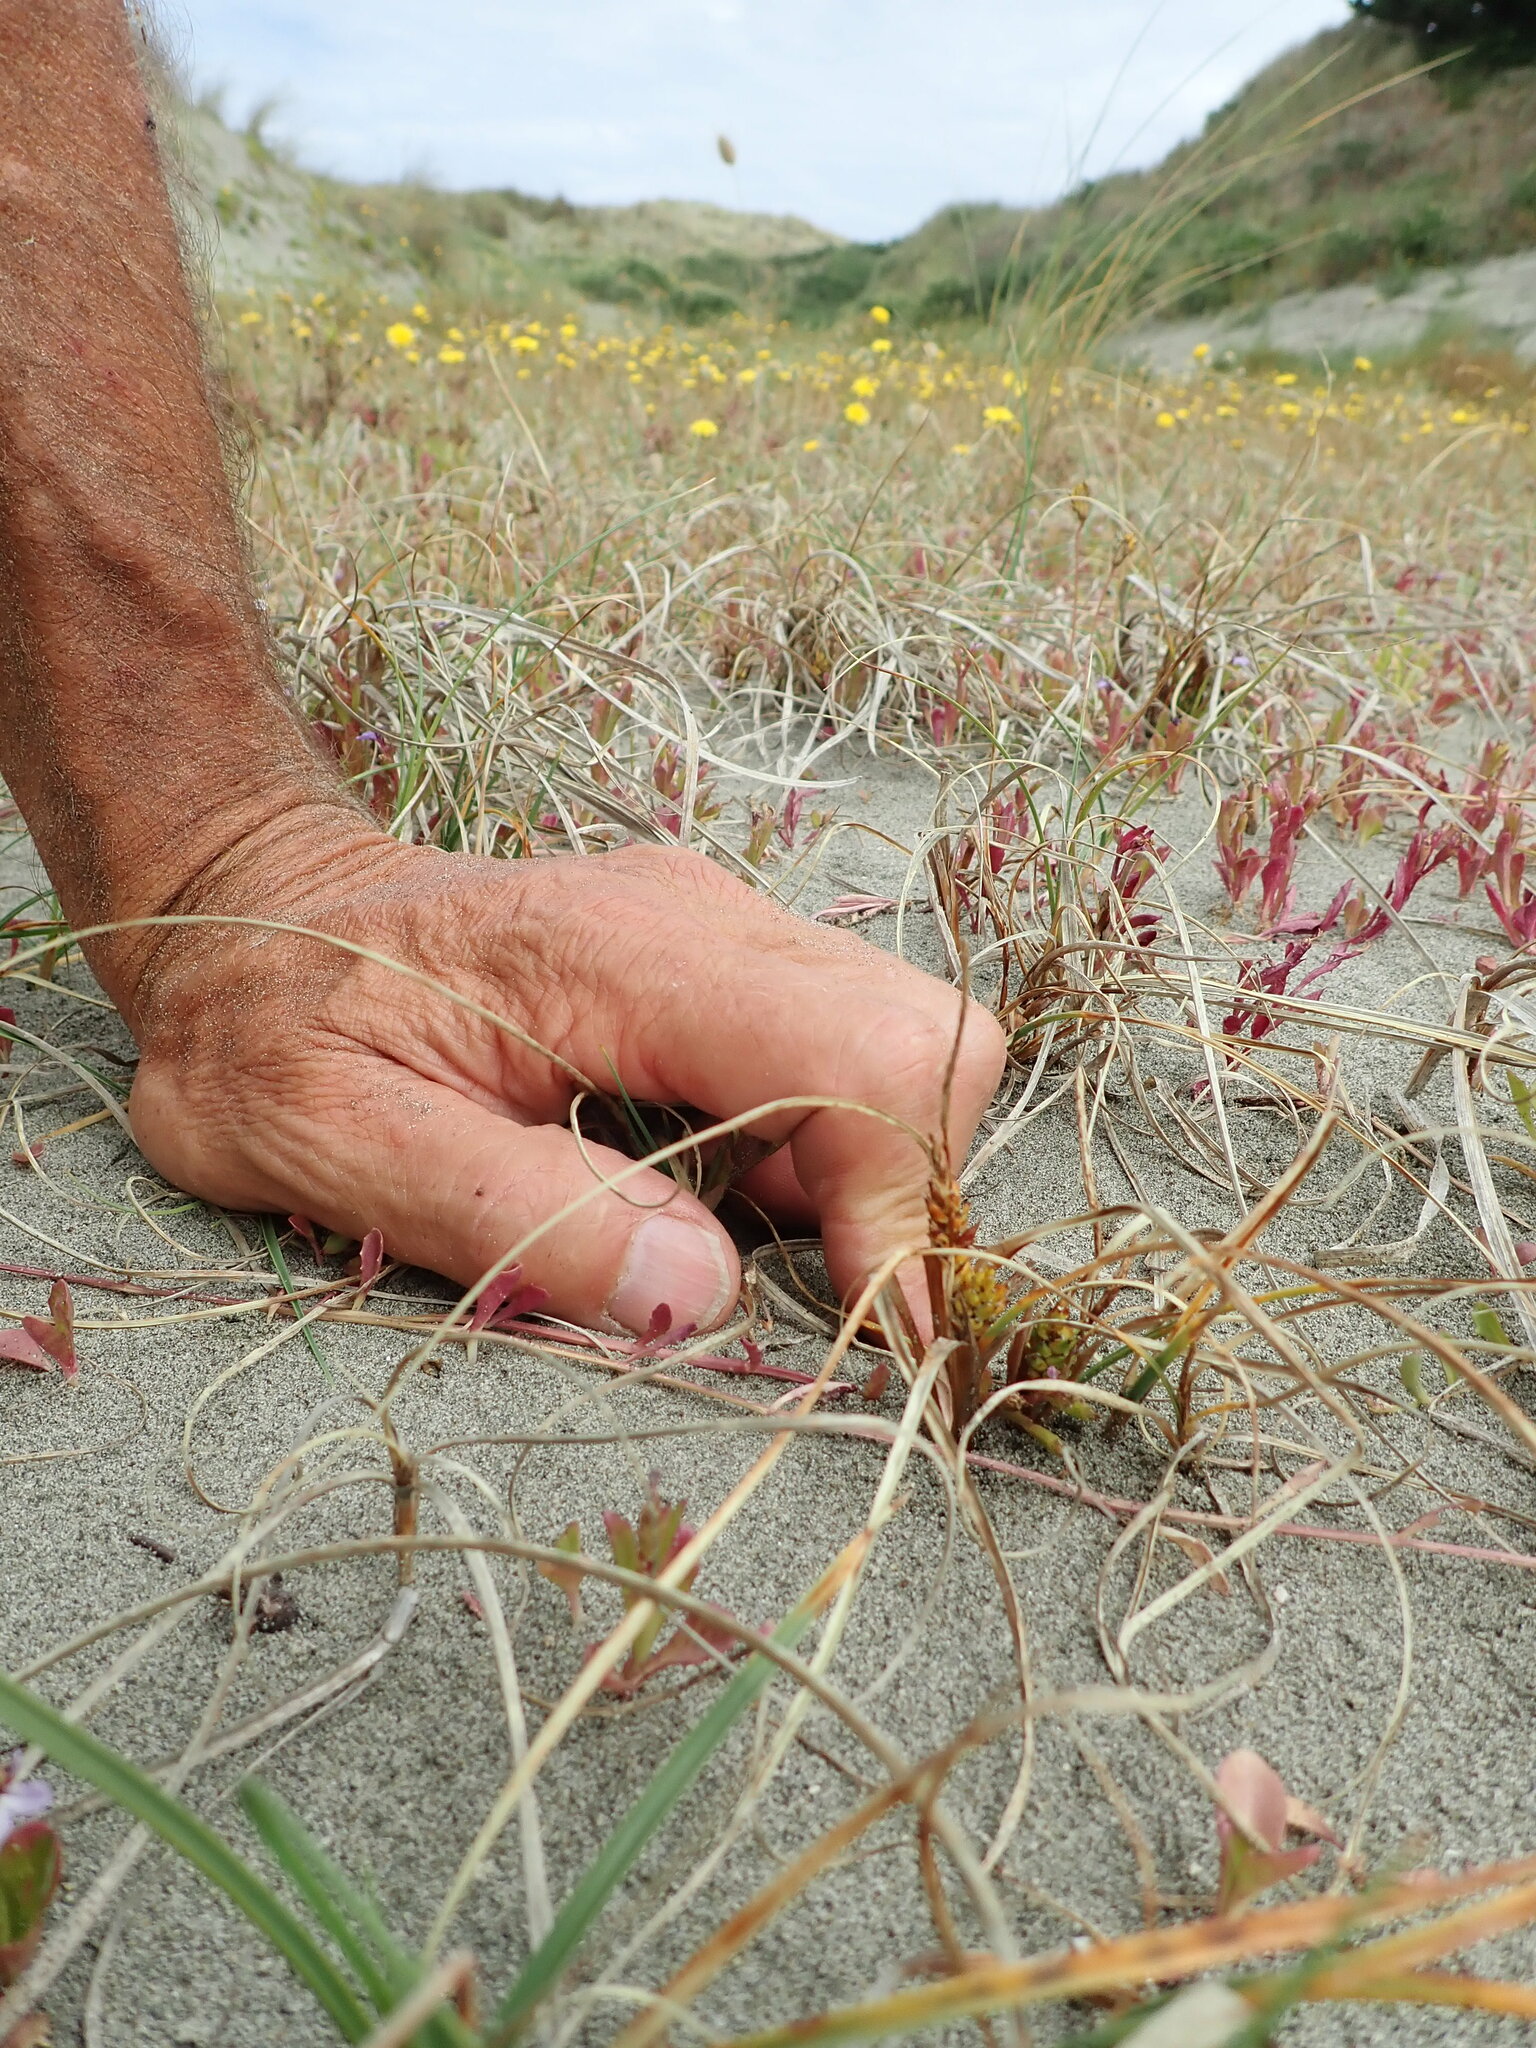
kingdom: Plantae
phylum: Tracheophyta
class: Liliopsida
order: Poales
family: Cyperaceae
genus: Carex
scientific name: Carex pumila
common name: Dwarf sedge
